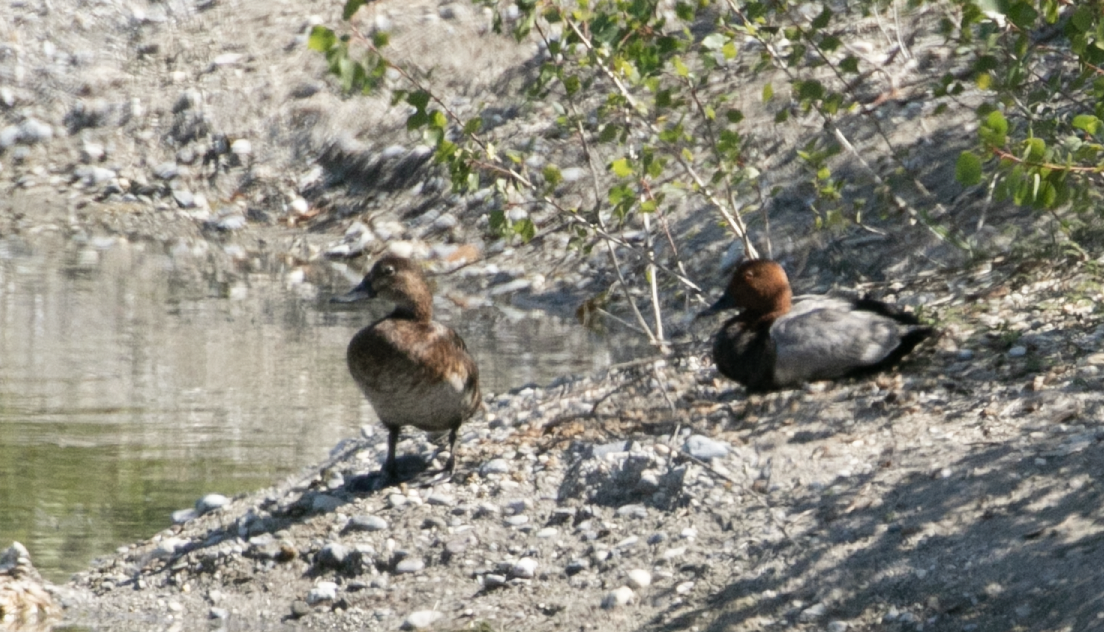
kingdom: Animalia
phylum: Chordata
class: Aves
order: Anseriformes
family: Anatidae
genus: Aythya
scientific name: Aythya ferina
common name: Common pochard
